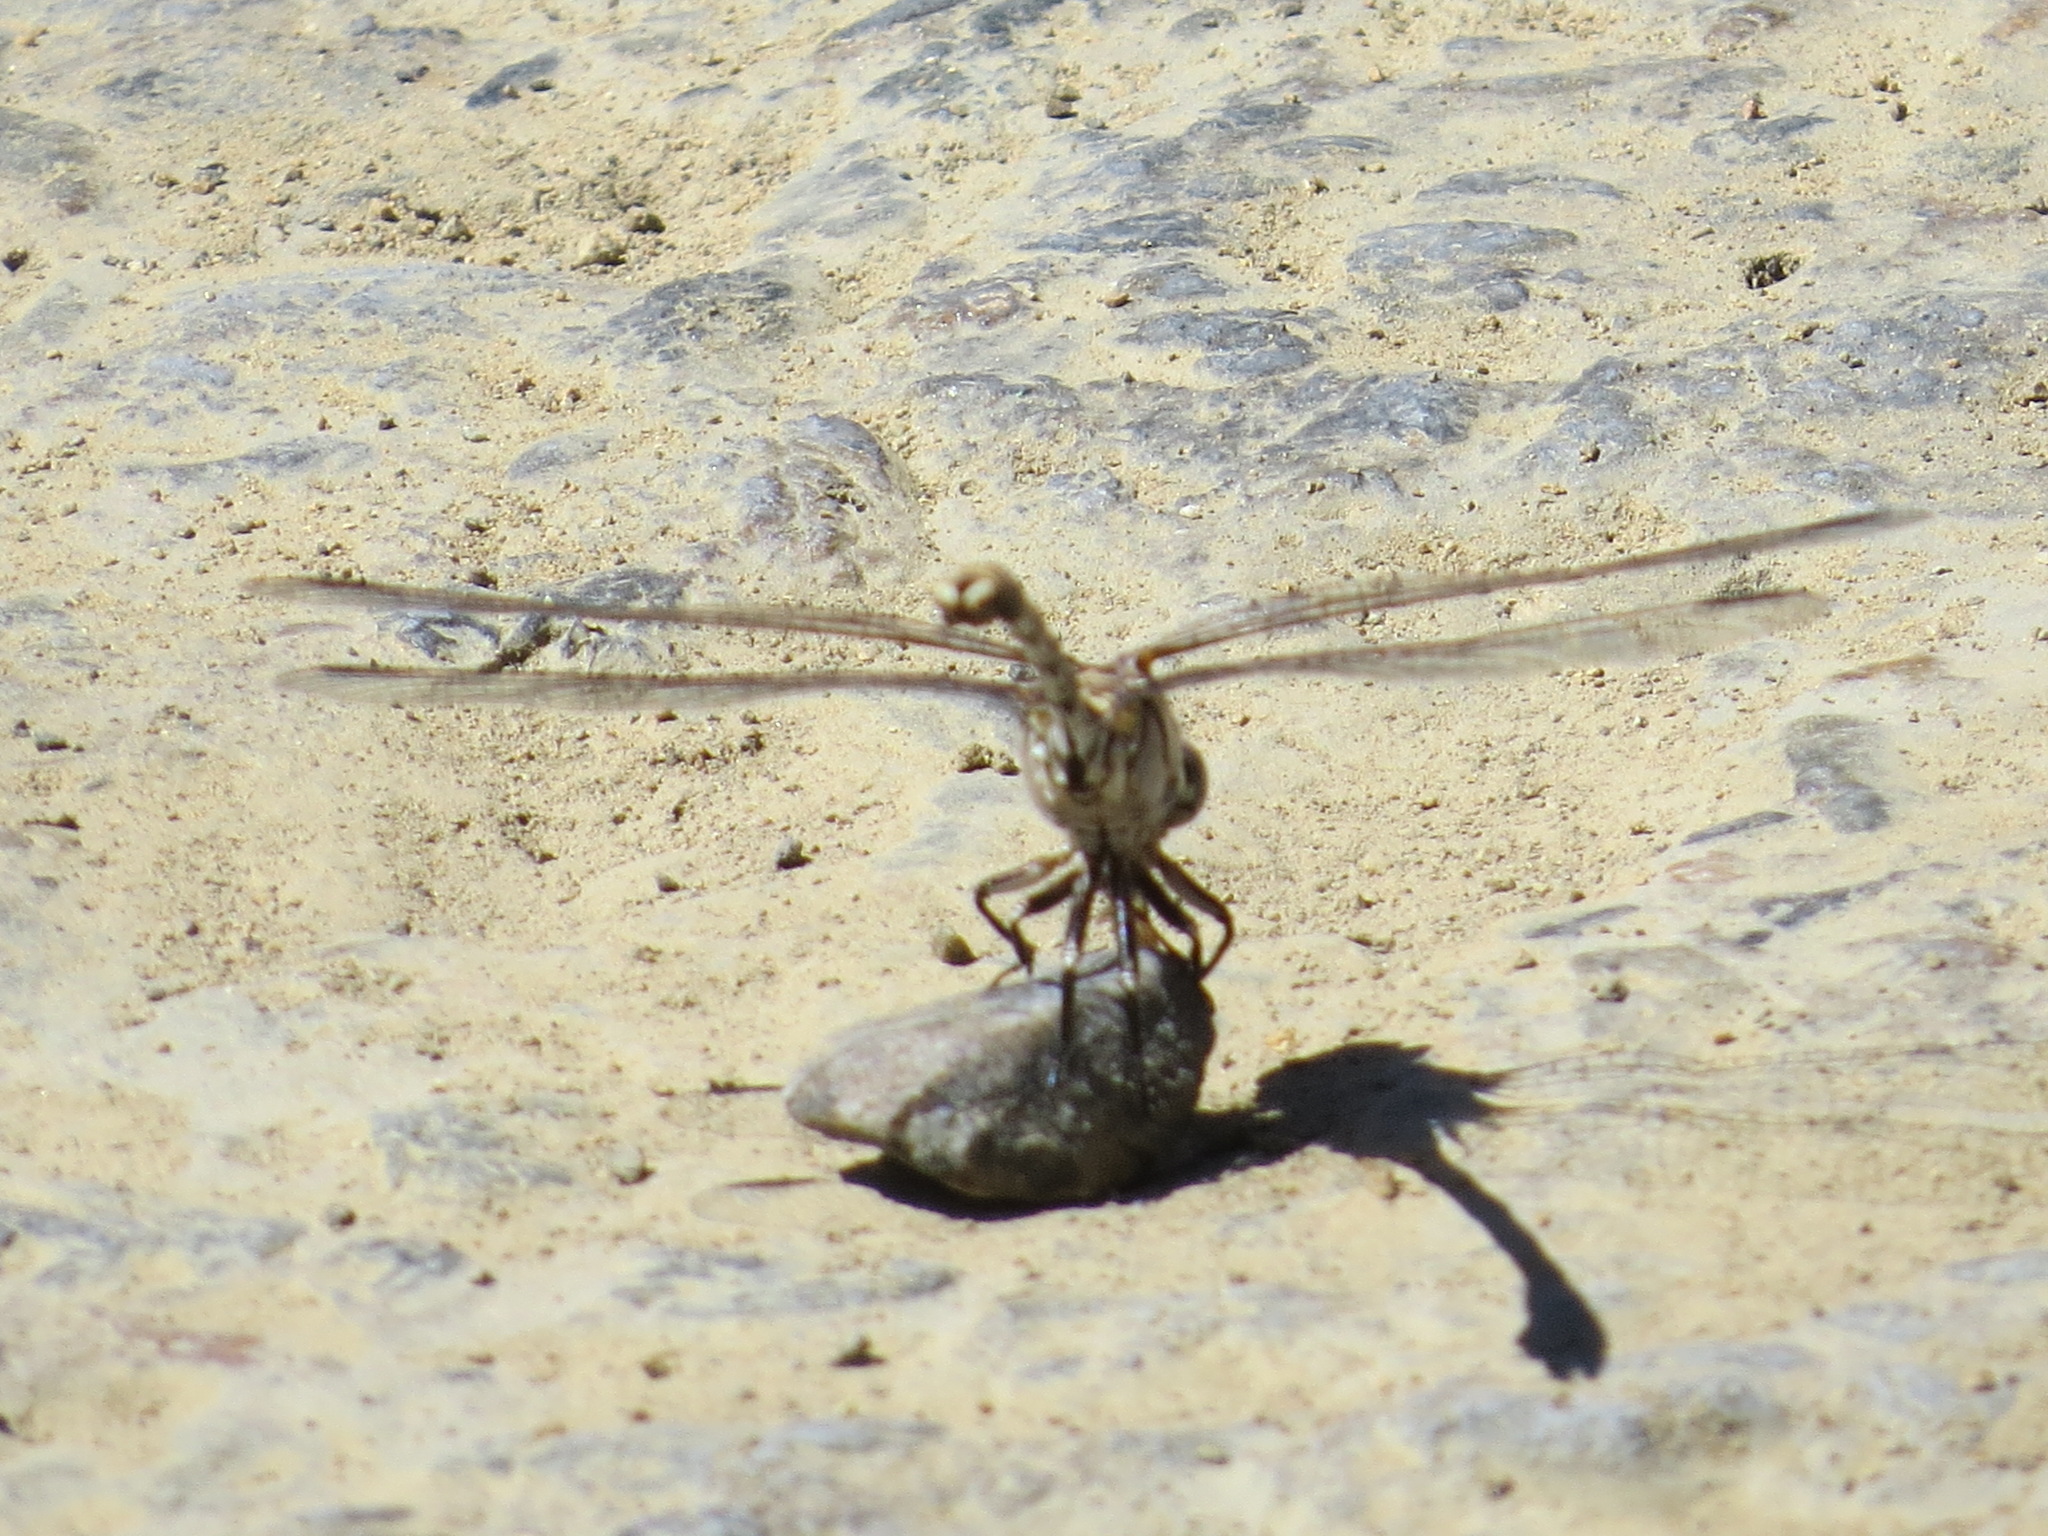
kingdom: Animalia
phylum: Arthropoda
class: Insecta
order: Odonata
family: Gomphidae
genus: Progomphus
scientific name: Progomphus borealis
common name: Gray sanddragon
